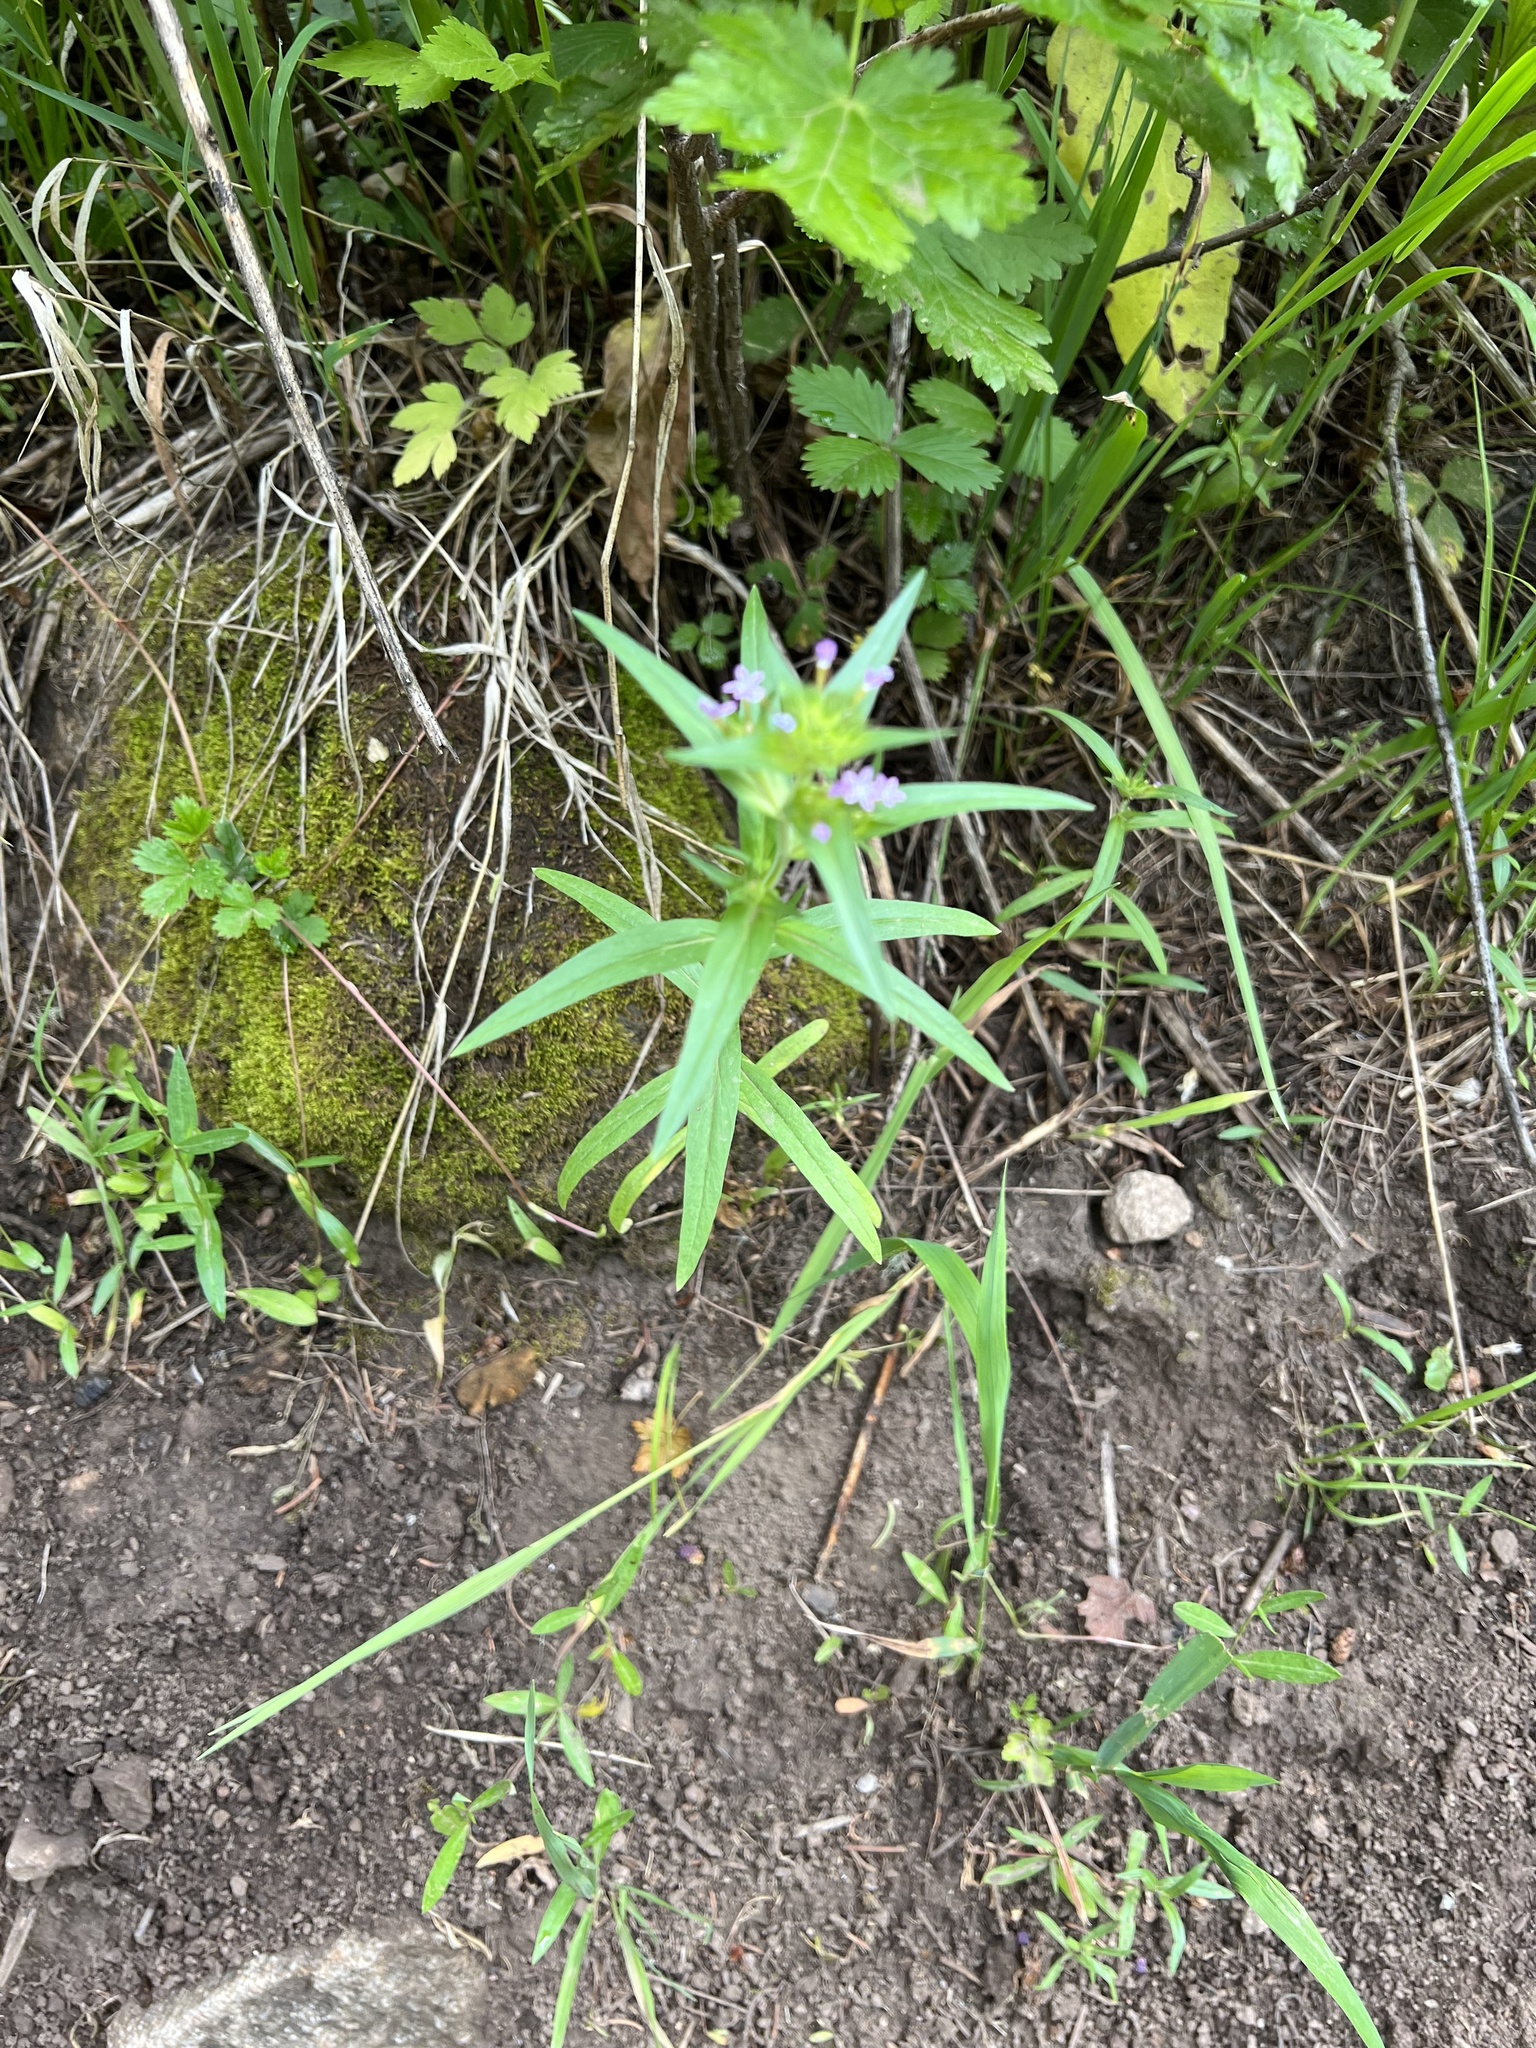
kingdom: Plantae
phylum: Tracheophyta
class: Magnoliopsida
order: Ericales
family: Polemoniaceae
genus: Collomia
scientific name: Collomia linearis
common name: Tiny trumpet
